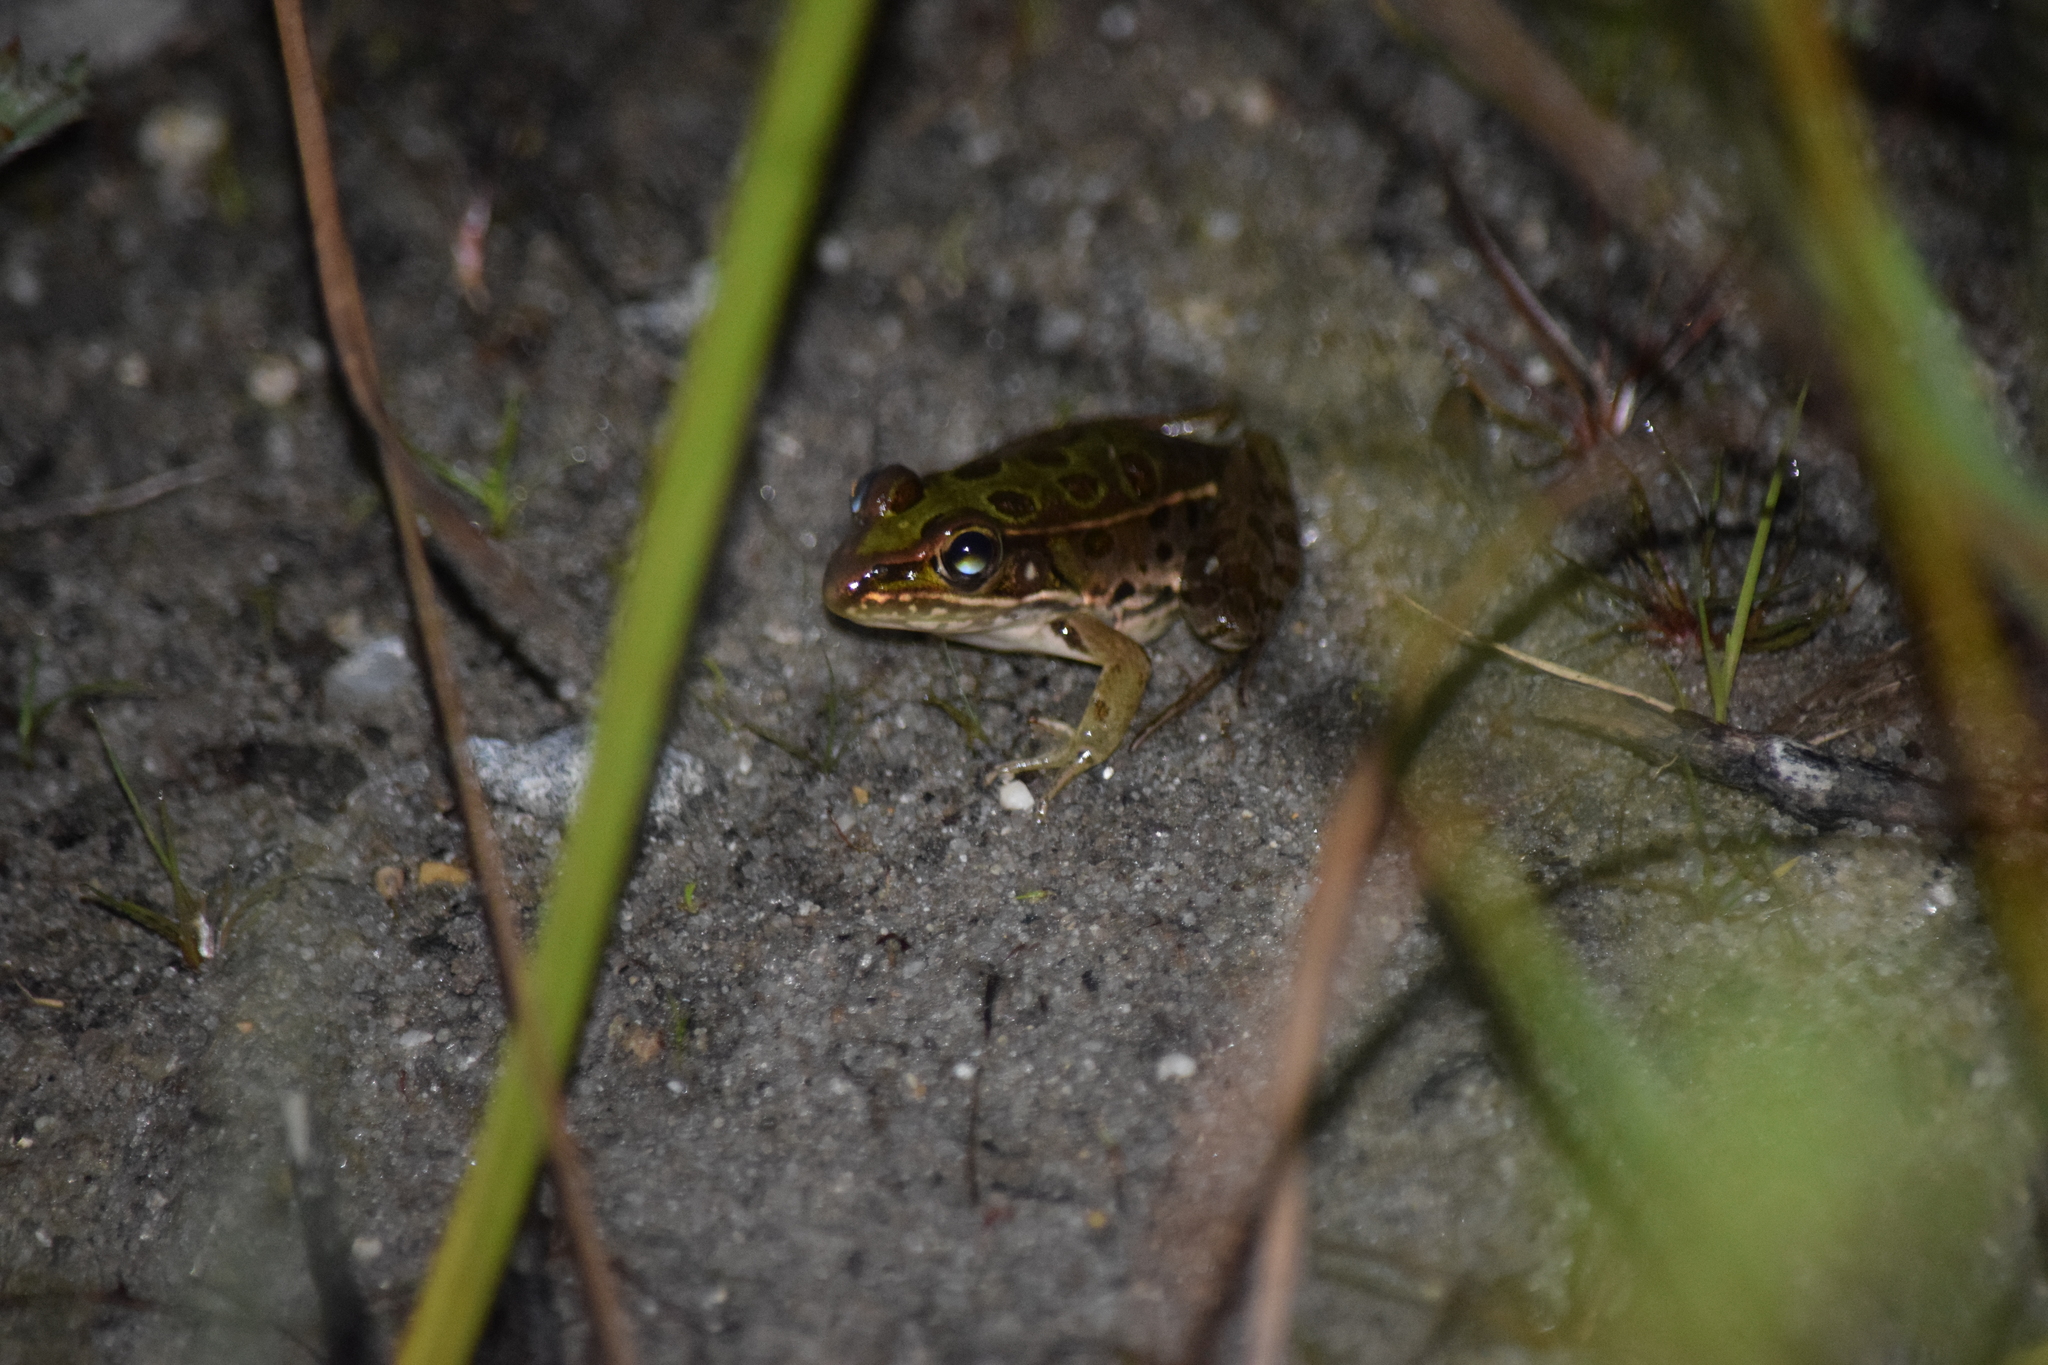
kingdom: Animalia
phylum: Chordata
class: Amphibia
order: Anura
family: Ranidae
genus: Lithobates
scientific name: Lithobates sphenocephalus
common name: Southern leopard frog
